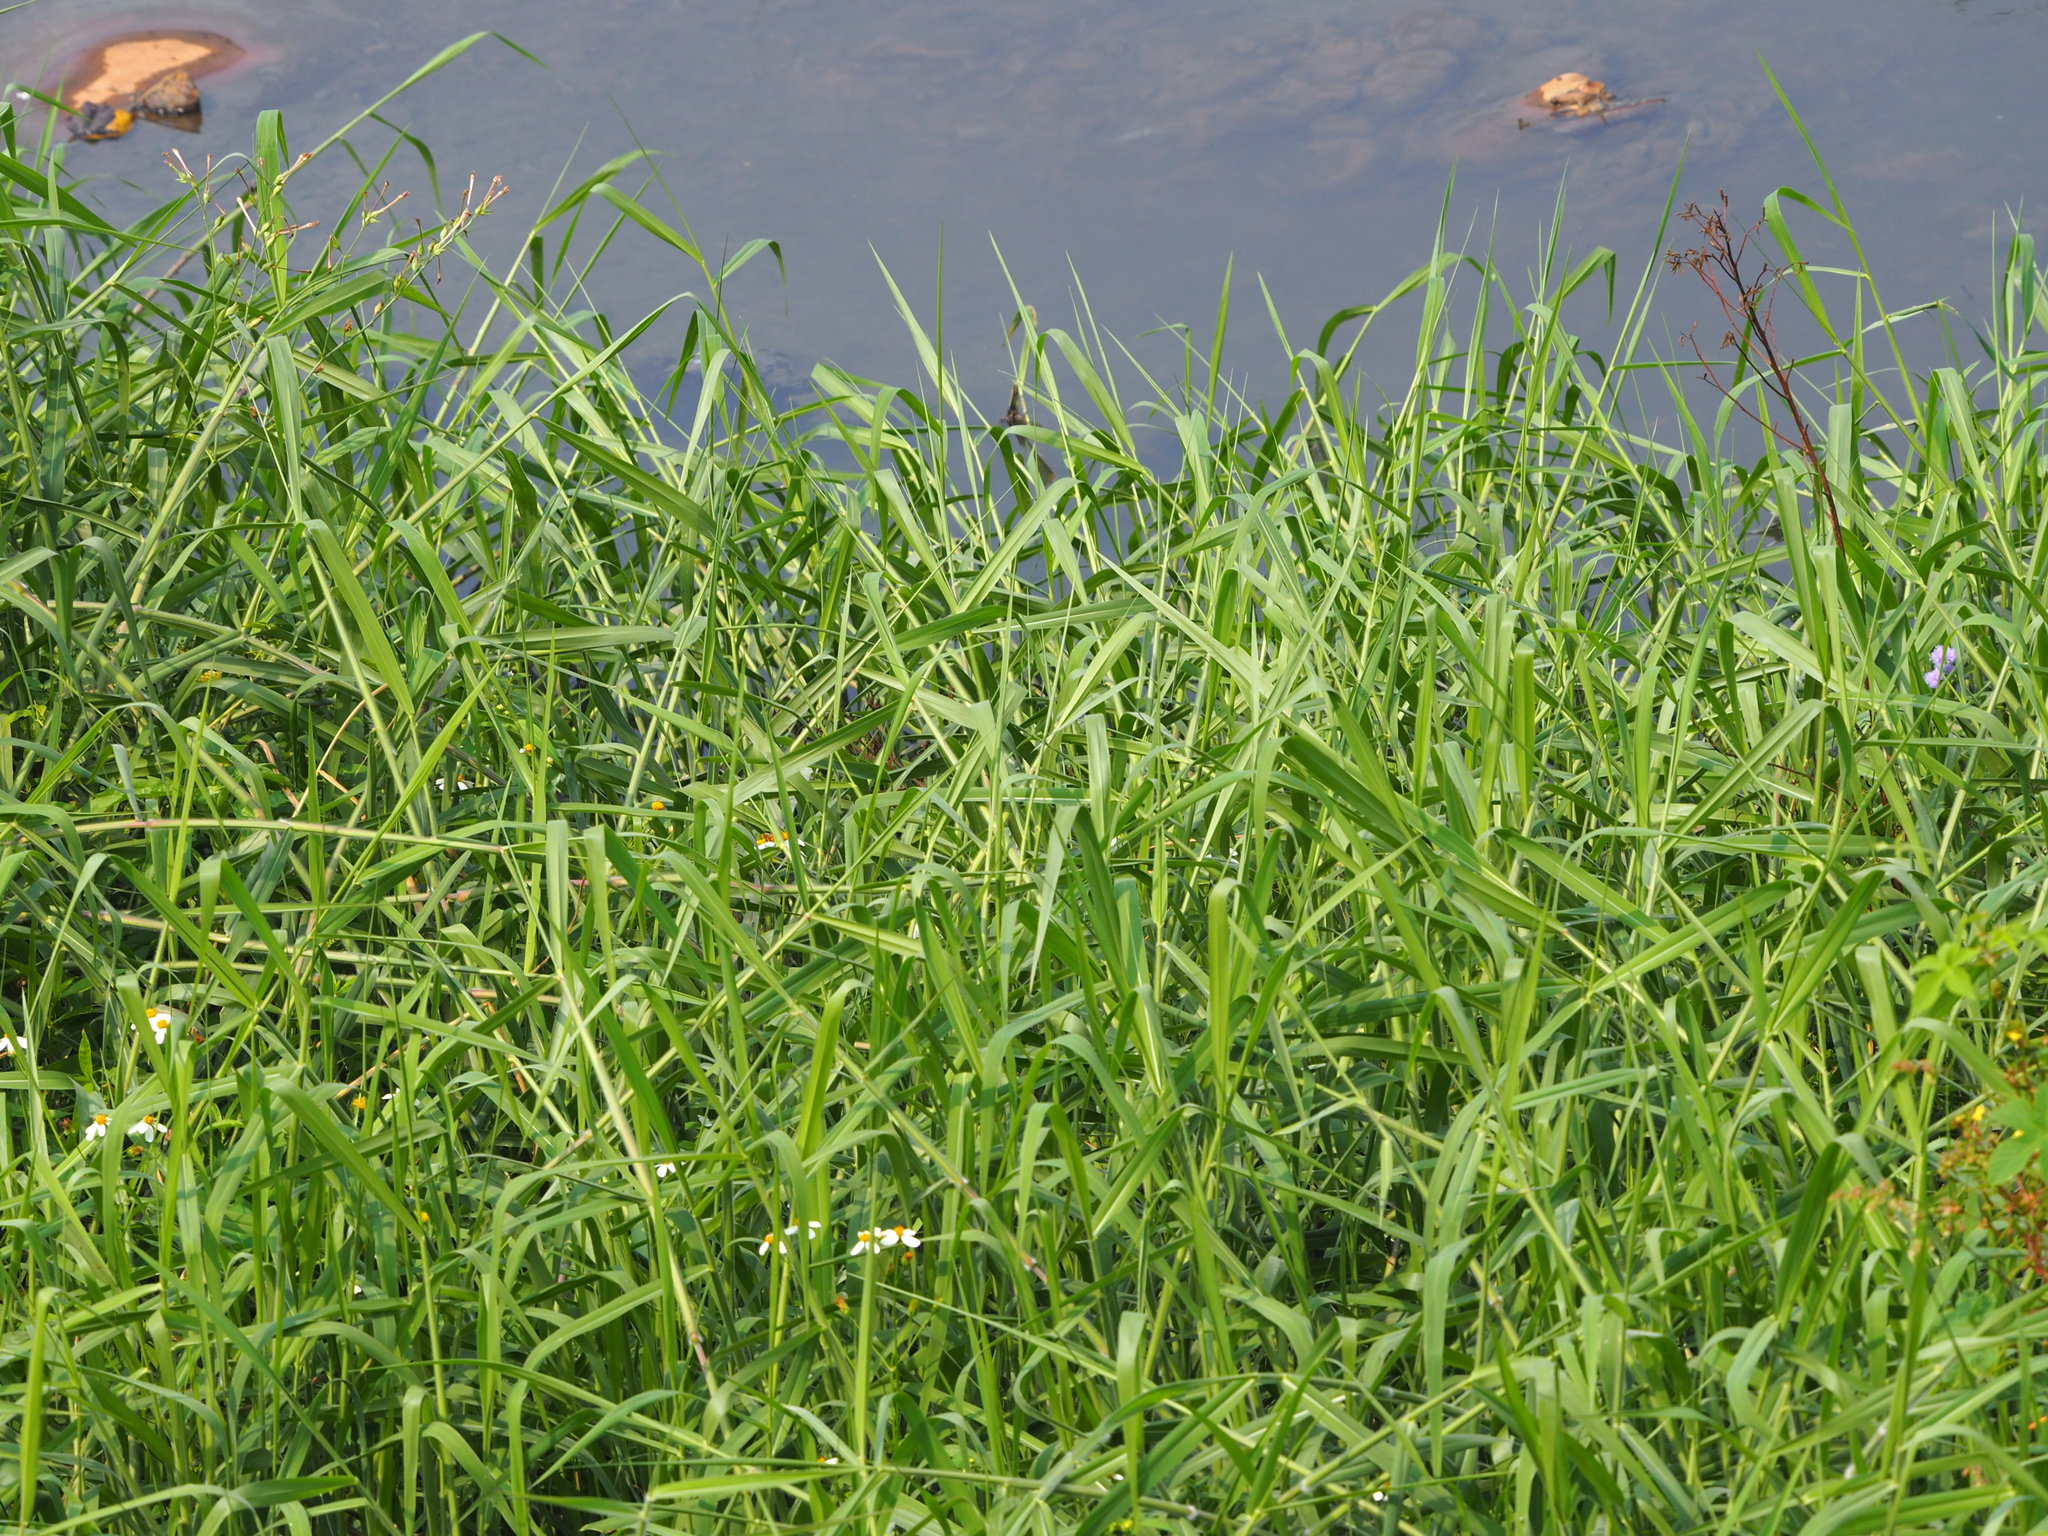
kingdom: Plantae
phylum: Tracheophyta
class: Liliopsida
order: Poales
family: Poaceae
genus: Urochloa
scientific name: Urochloa mutica
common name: Para grass
